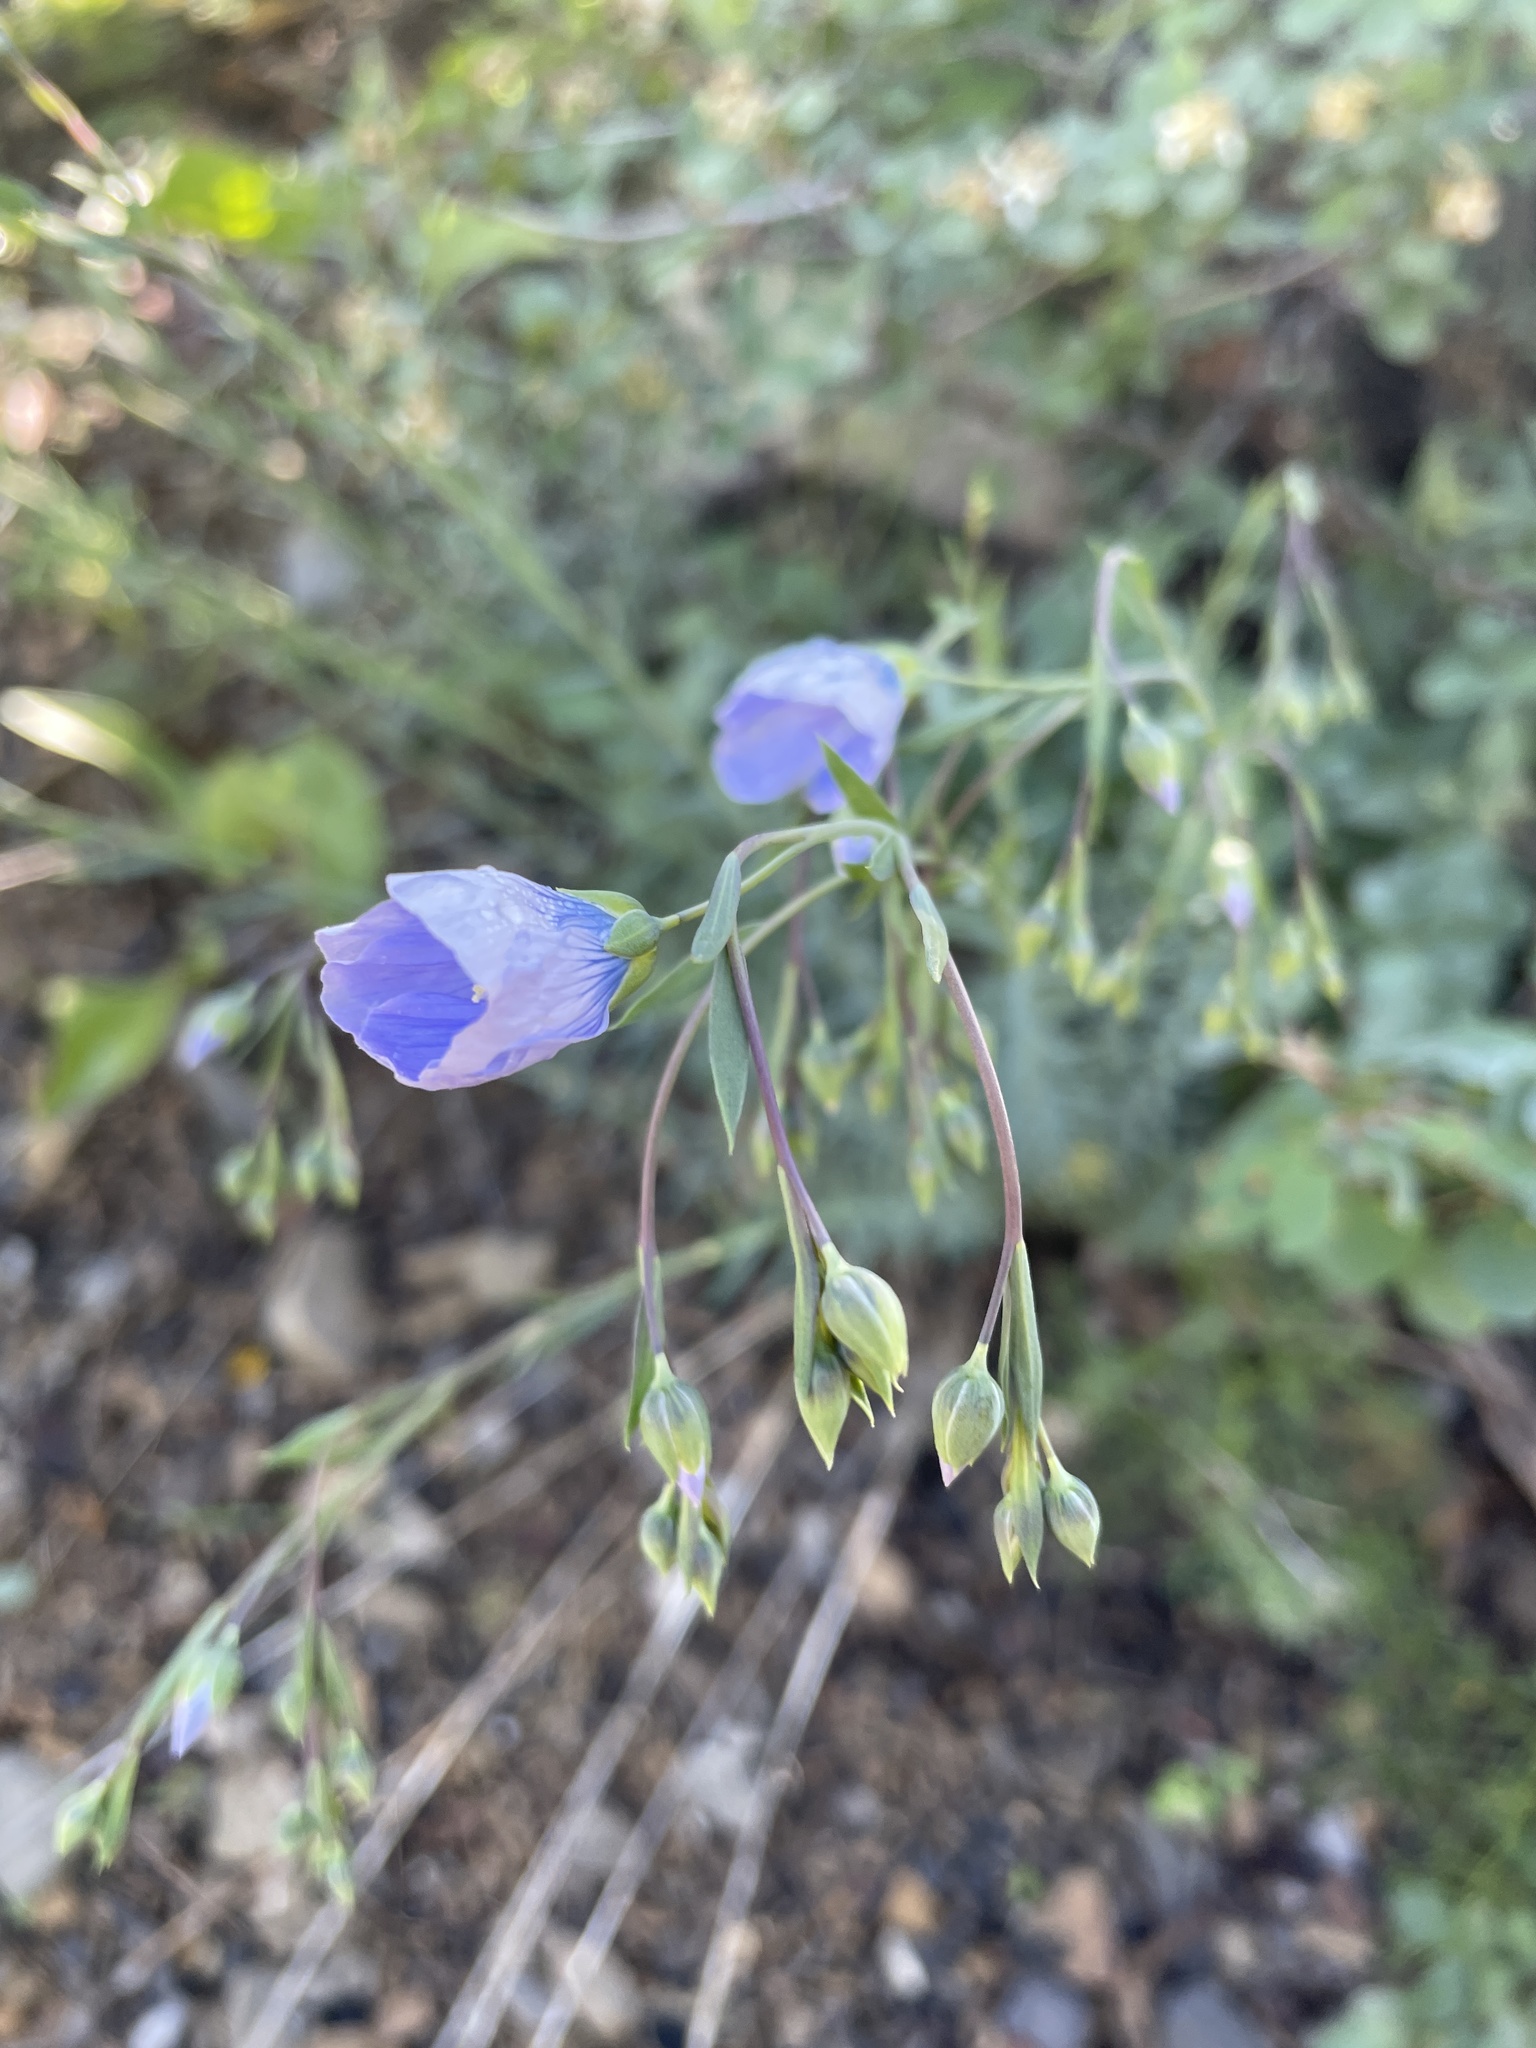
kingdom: Plantae
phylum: Tracheophyta
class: Magnoliopsida
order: Malpighiales
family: Linaceae
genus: Linum
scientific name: Linum lewisii
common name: Prairie flax
